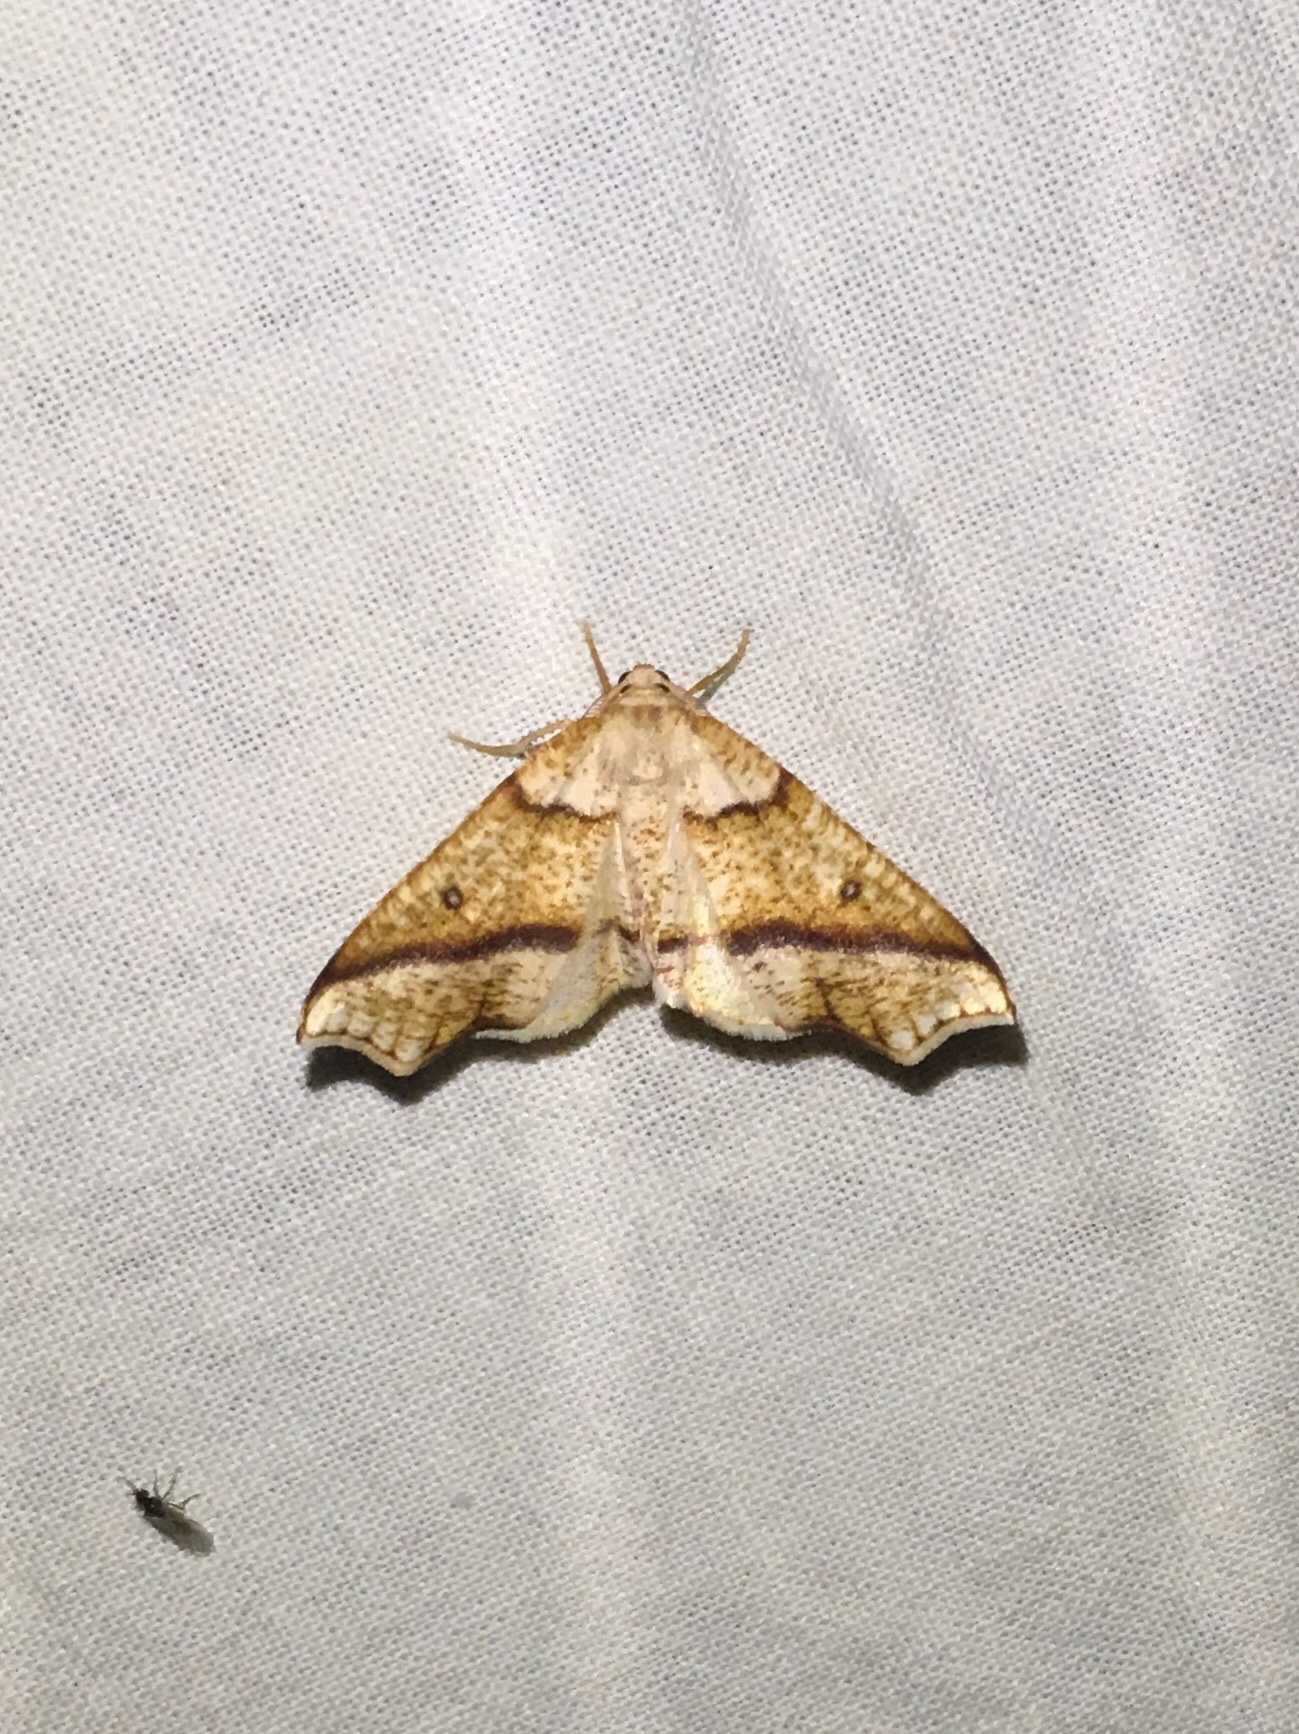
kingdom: Animalia
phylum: Arthropoda
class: Insecta
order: Lepidoptera
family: Geometridae
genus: Plagodis
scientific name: Plagodis alcoolaria
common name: Hollow-spotted plagodis
